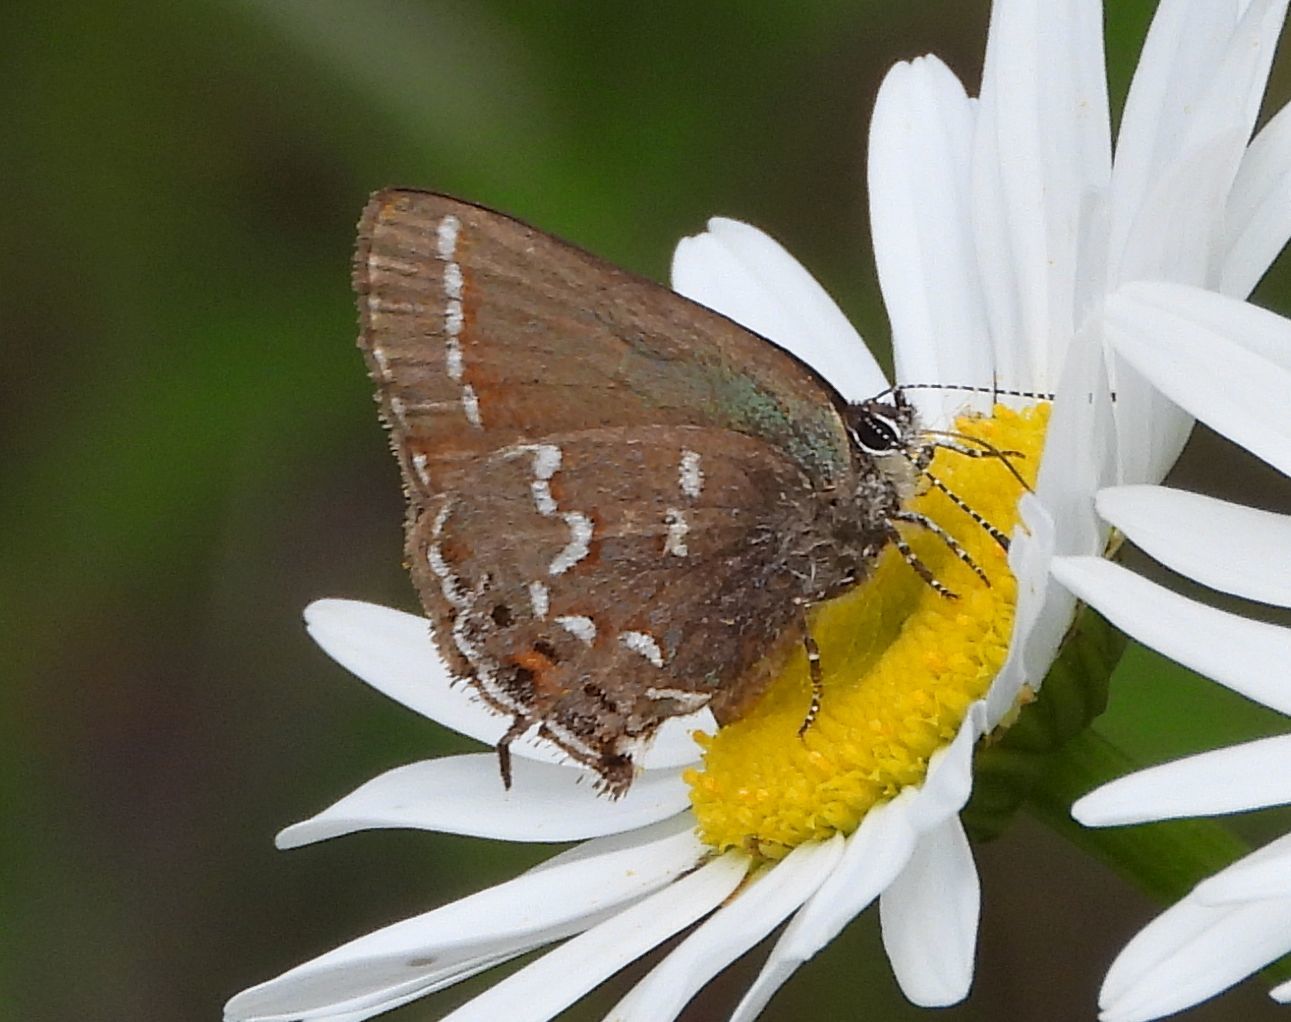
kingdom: Animalia
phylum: Arthropoda
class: Insecta
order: Lepidoptera
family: Lycaenidae
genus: Mitoura
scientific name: Mitoura gryneus
